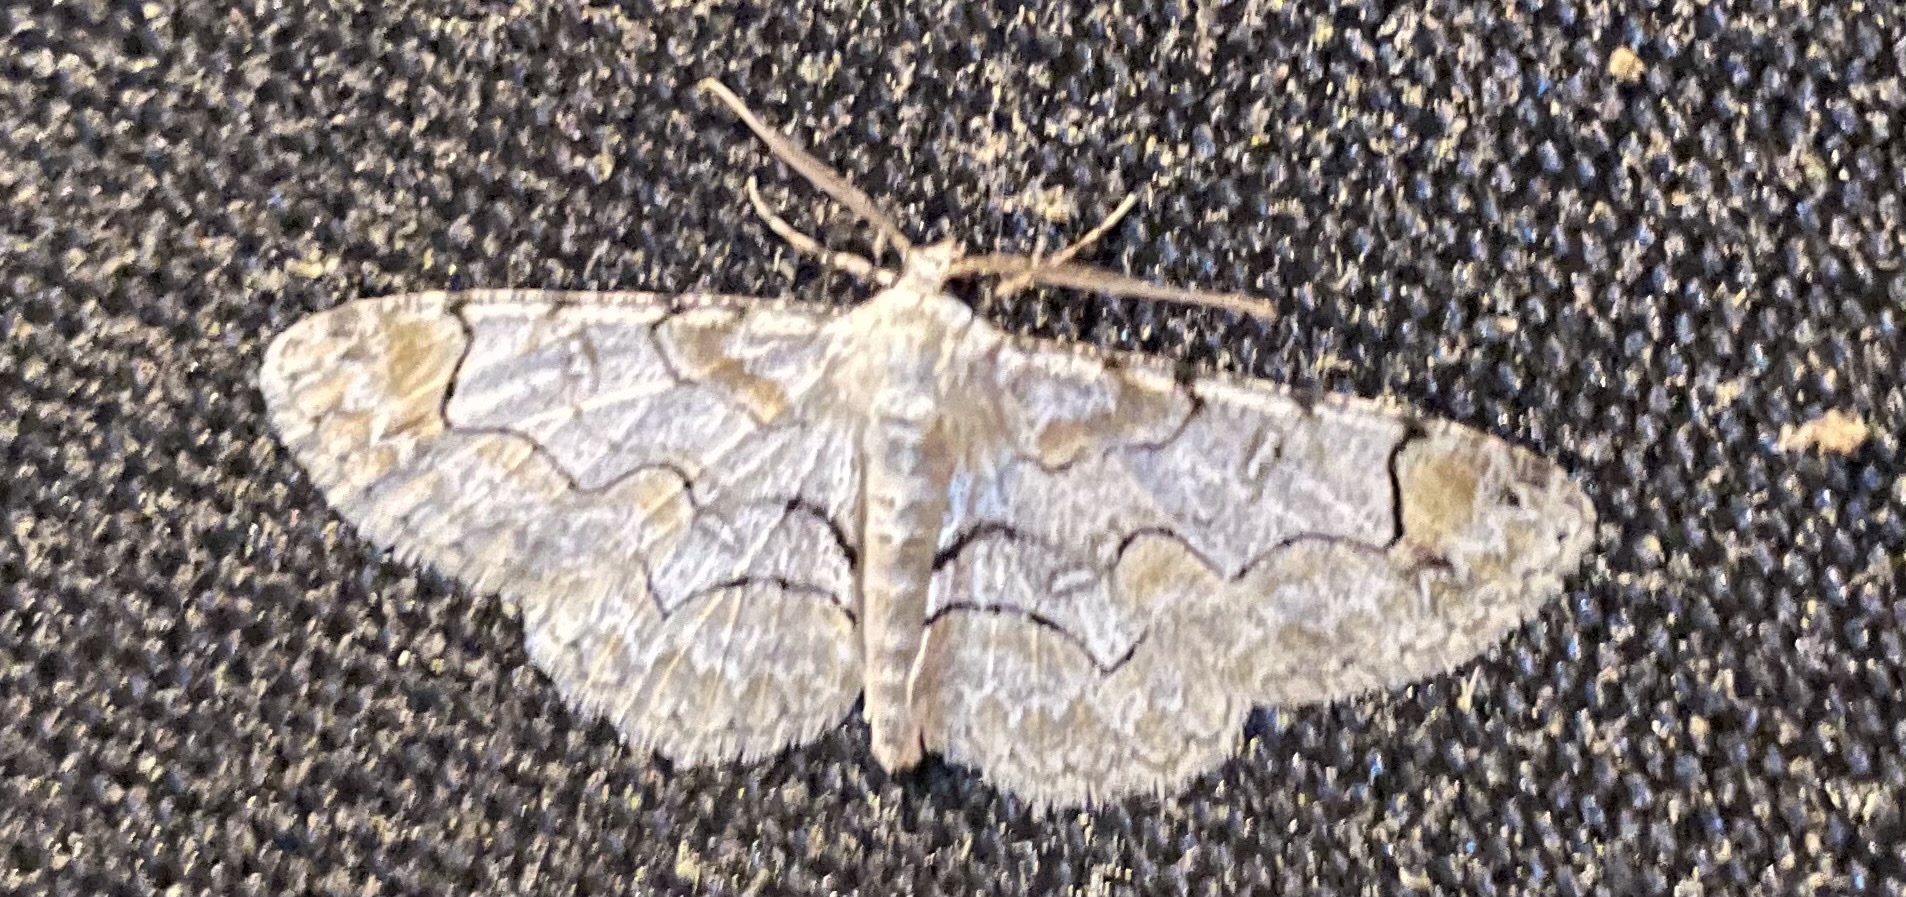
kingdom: Animalia
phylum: Arthropoda
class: Insecta
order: Lepidoptera
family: Geometridae
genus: Iridopsis
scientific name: Iridopsis larvaria
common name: Bent-line gray
